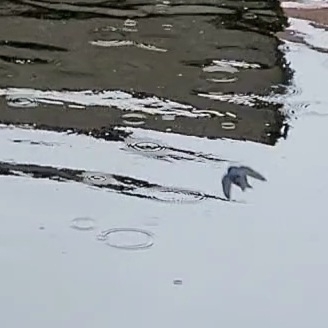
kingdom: Animalia
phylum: Chordata
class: Aves
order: Passeriformes
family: Hirundinidae
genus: Tachycineta
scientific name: Tachycineta bicolor
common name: Tree swallow
